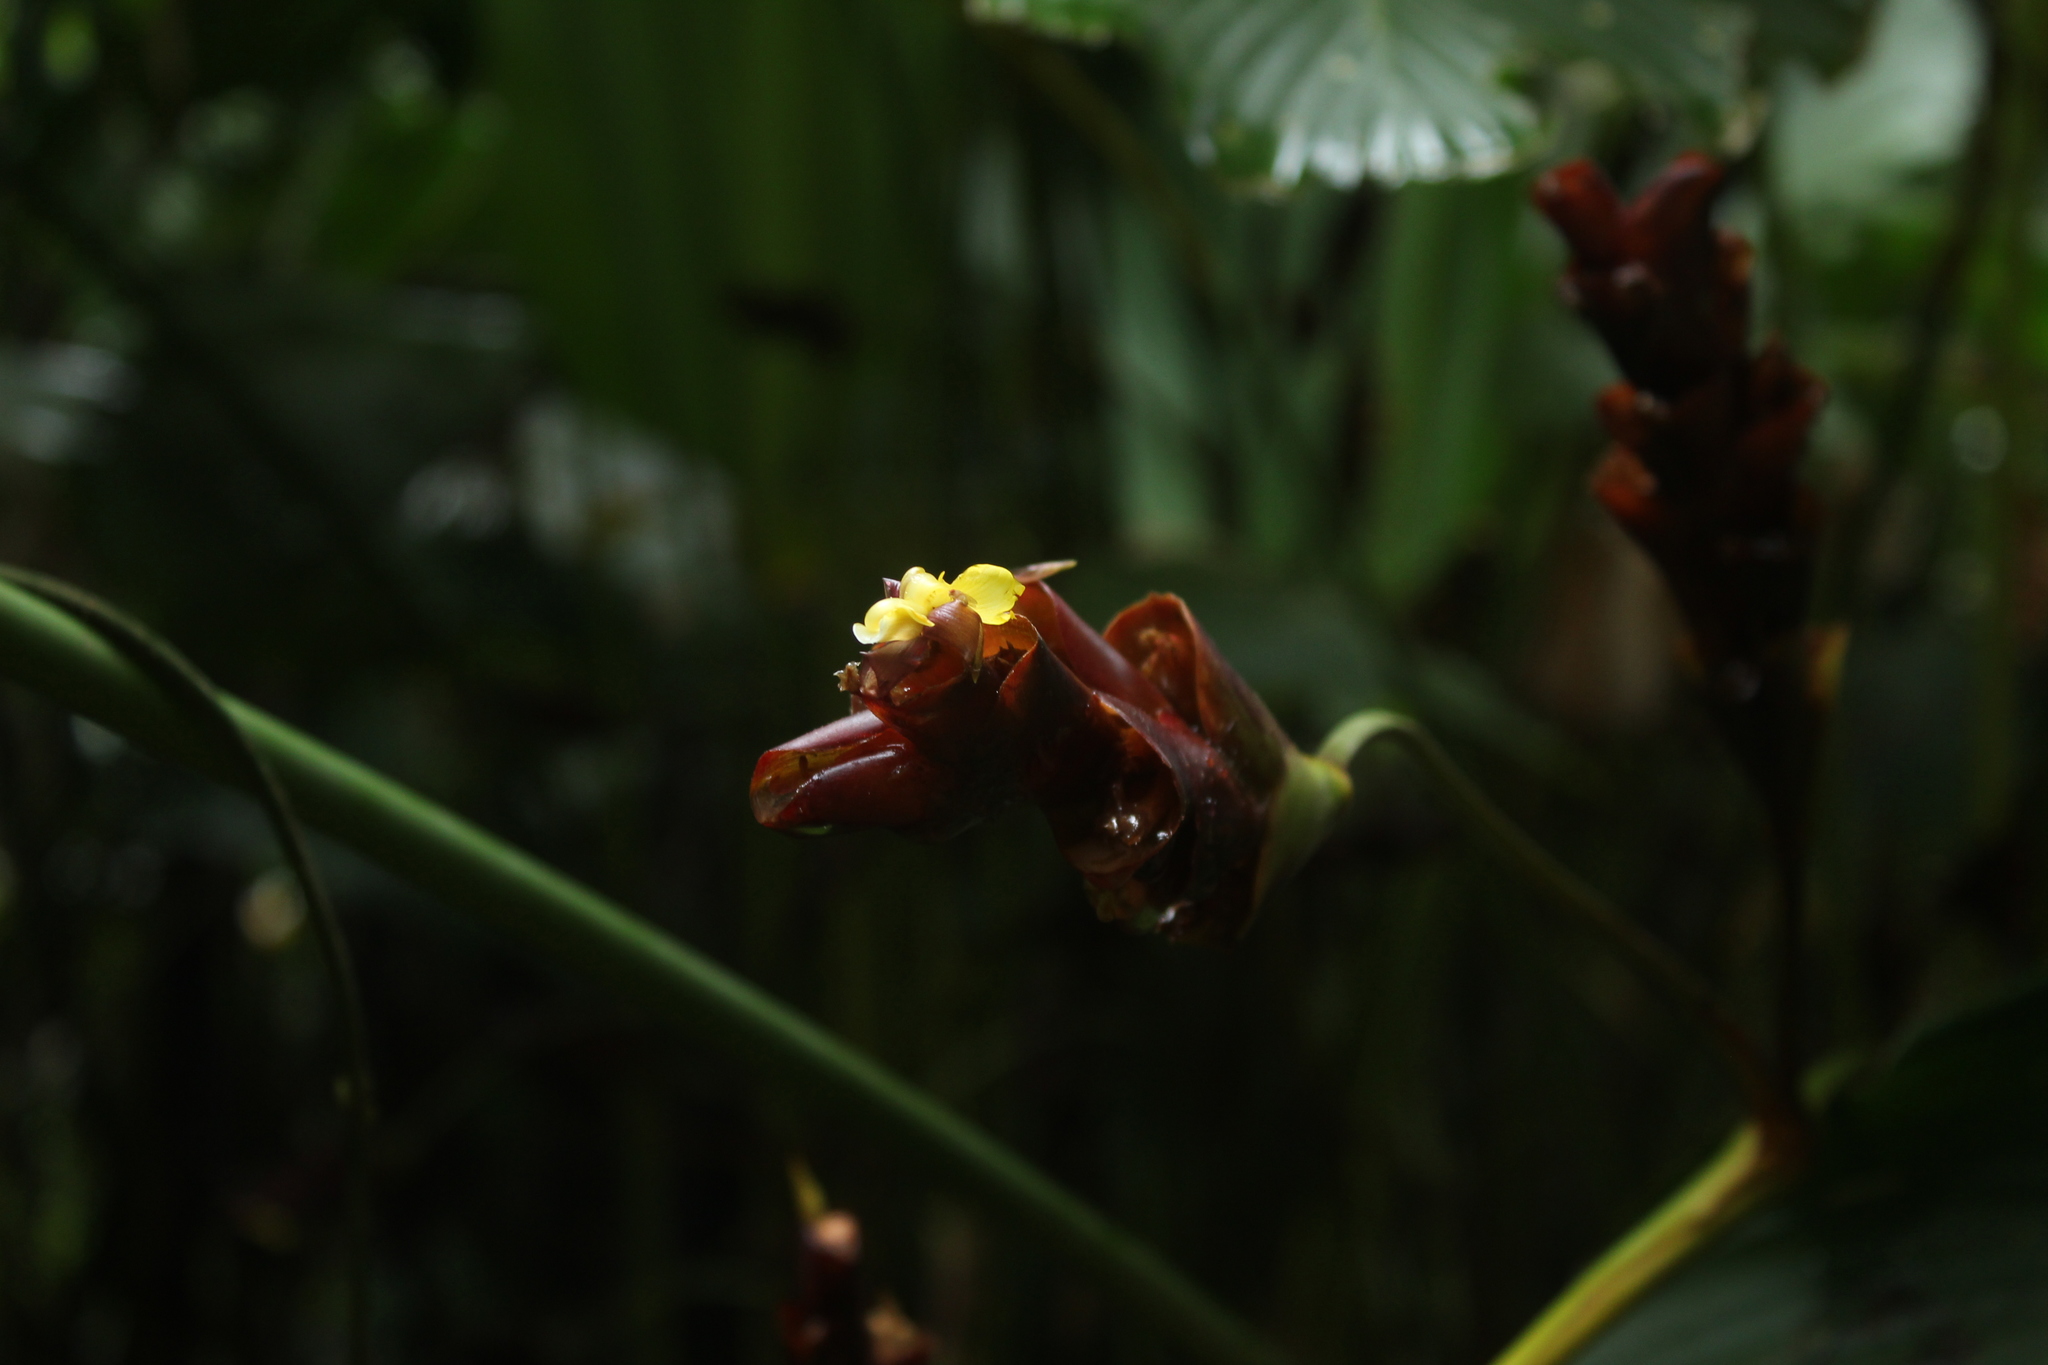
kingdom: Plantae
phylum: Tracheophyta
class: Liliopsida
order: Zingiberales
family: Marantaceae
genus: Calathea
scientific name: Calathea lutea
